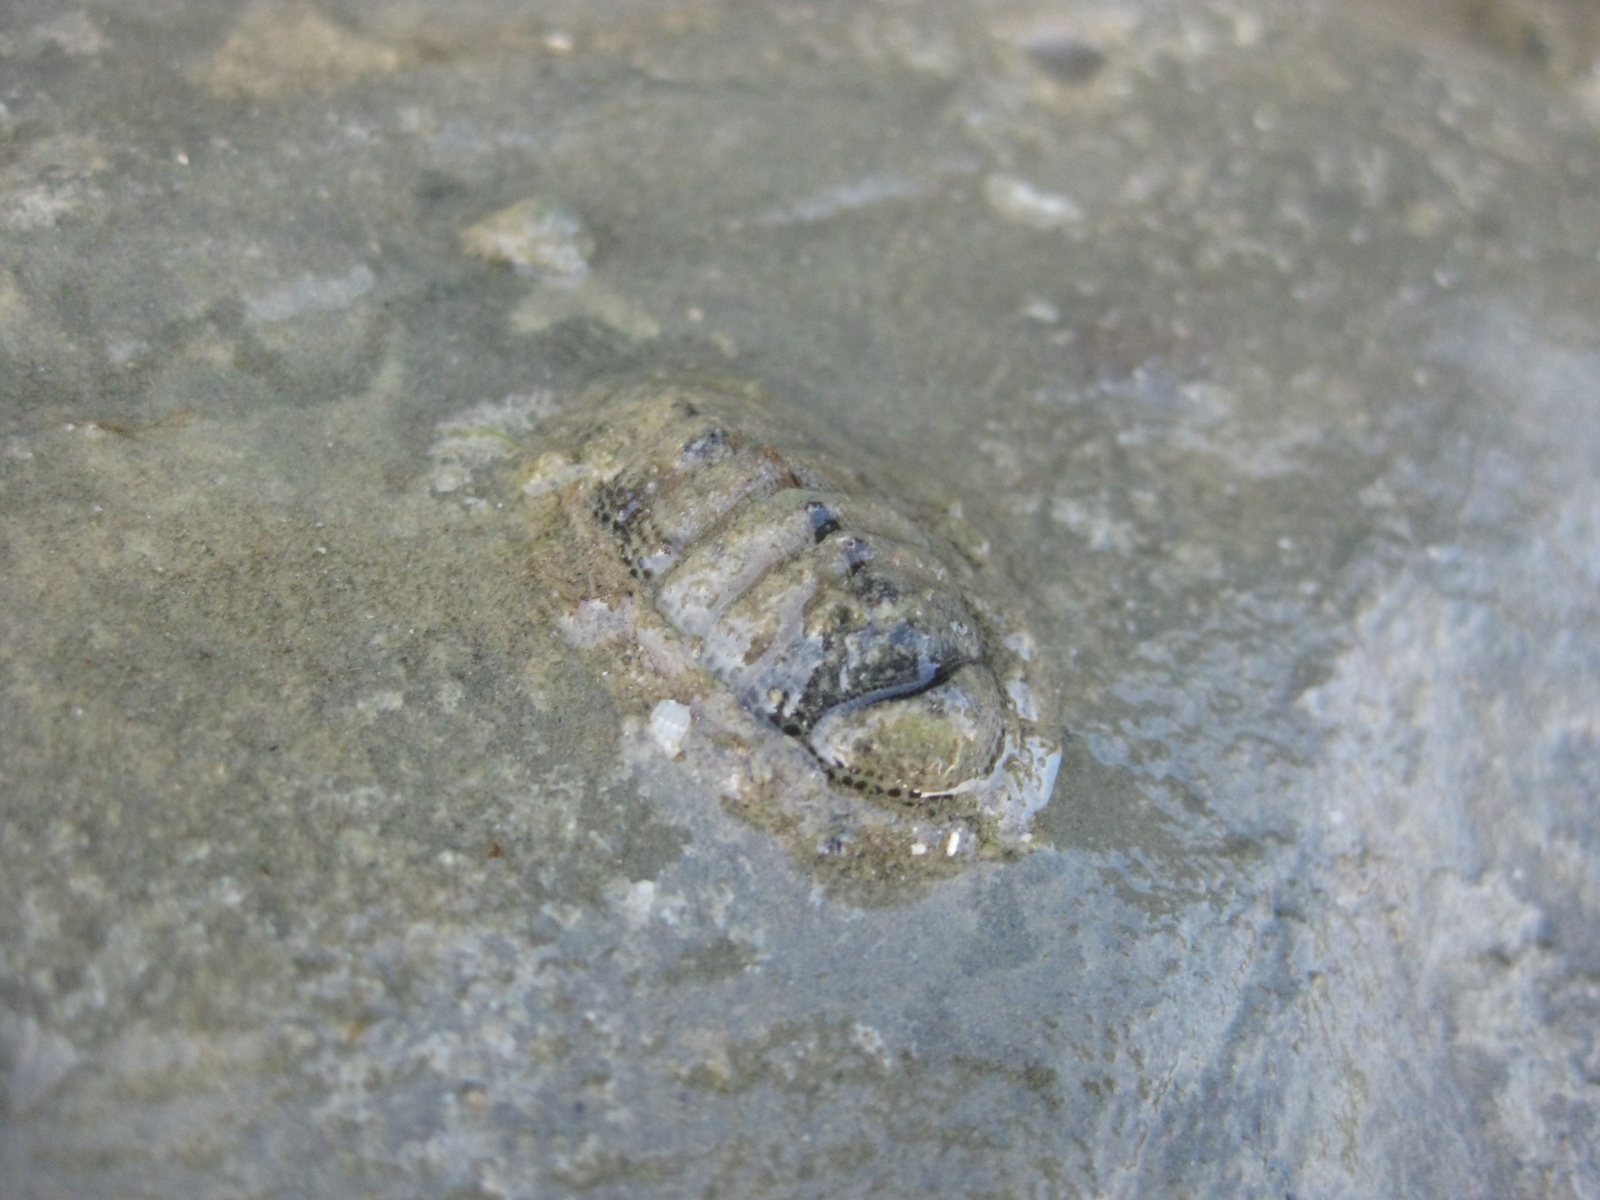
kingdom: Animalia
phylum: Mollusca
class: Polyplacophora
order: Chitonida
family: Chitonidae
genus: Sypharochiton
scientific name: Sypharochiton pelliserpentis
